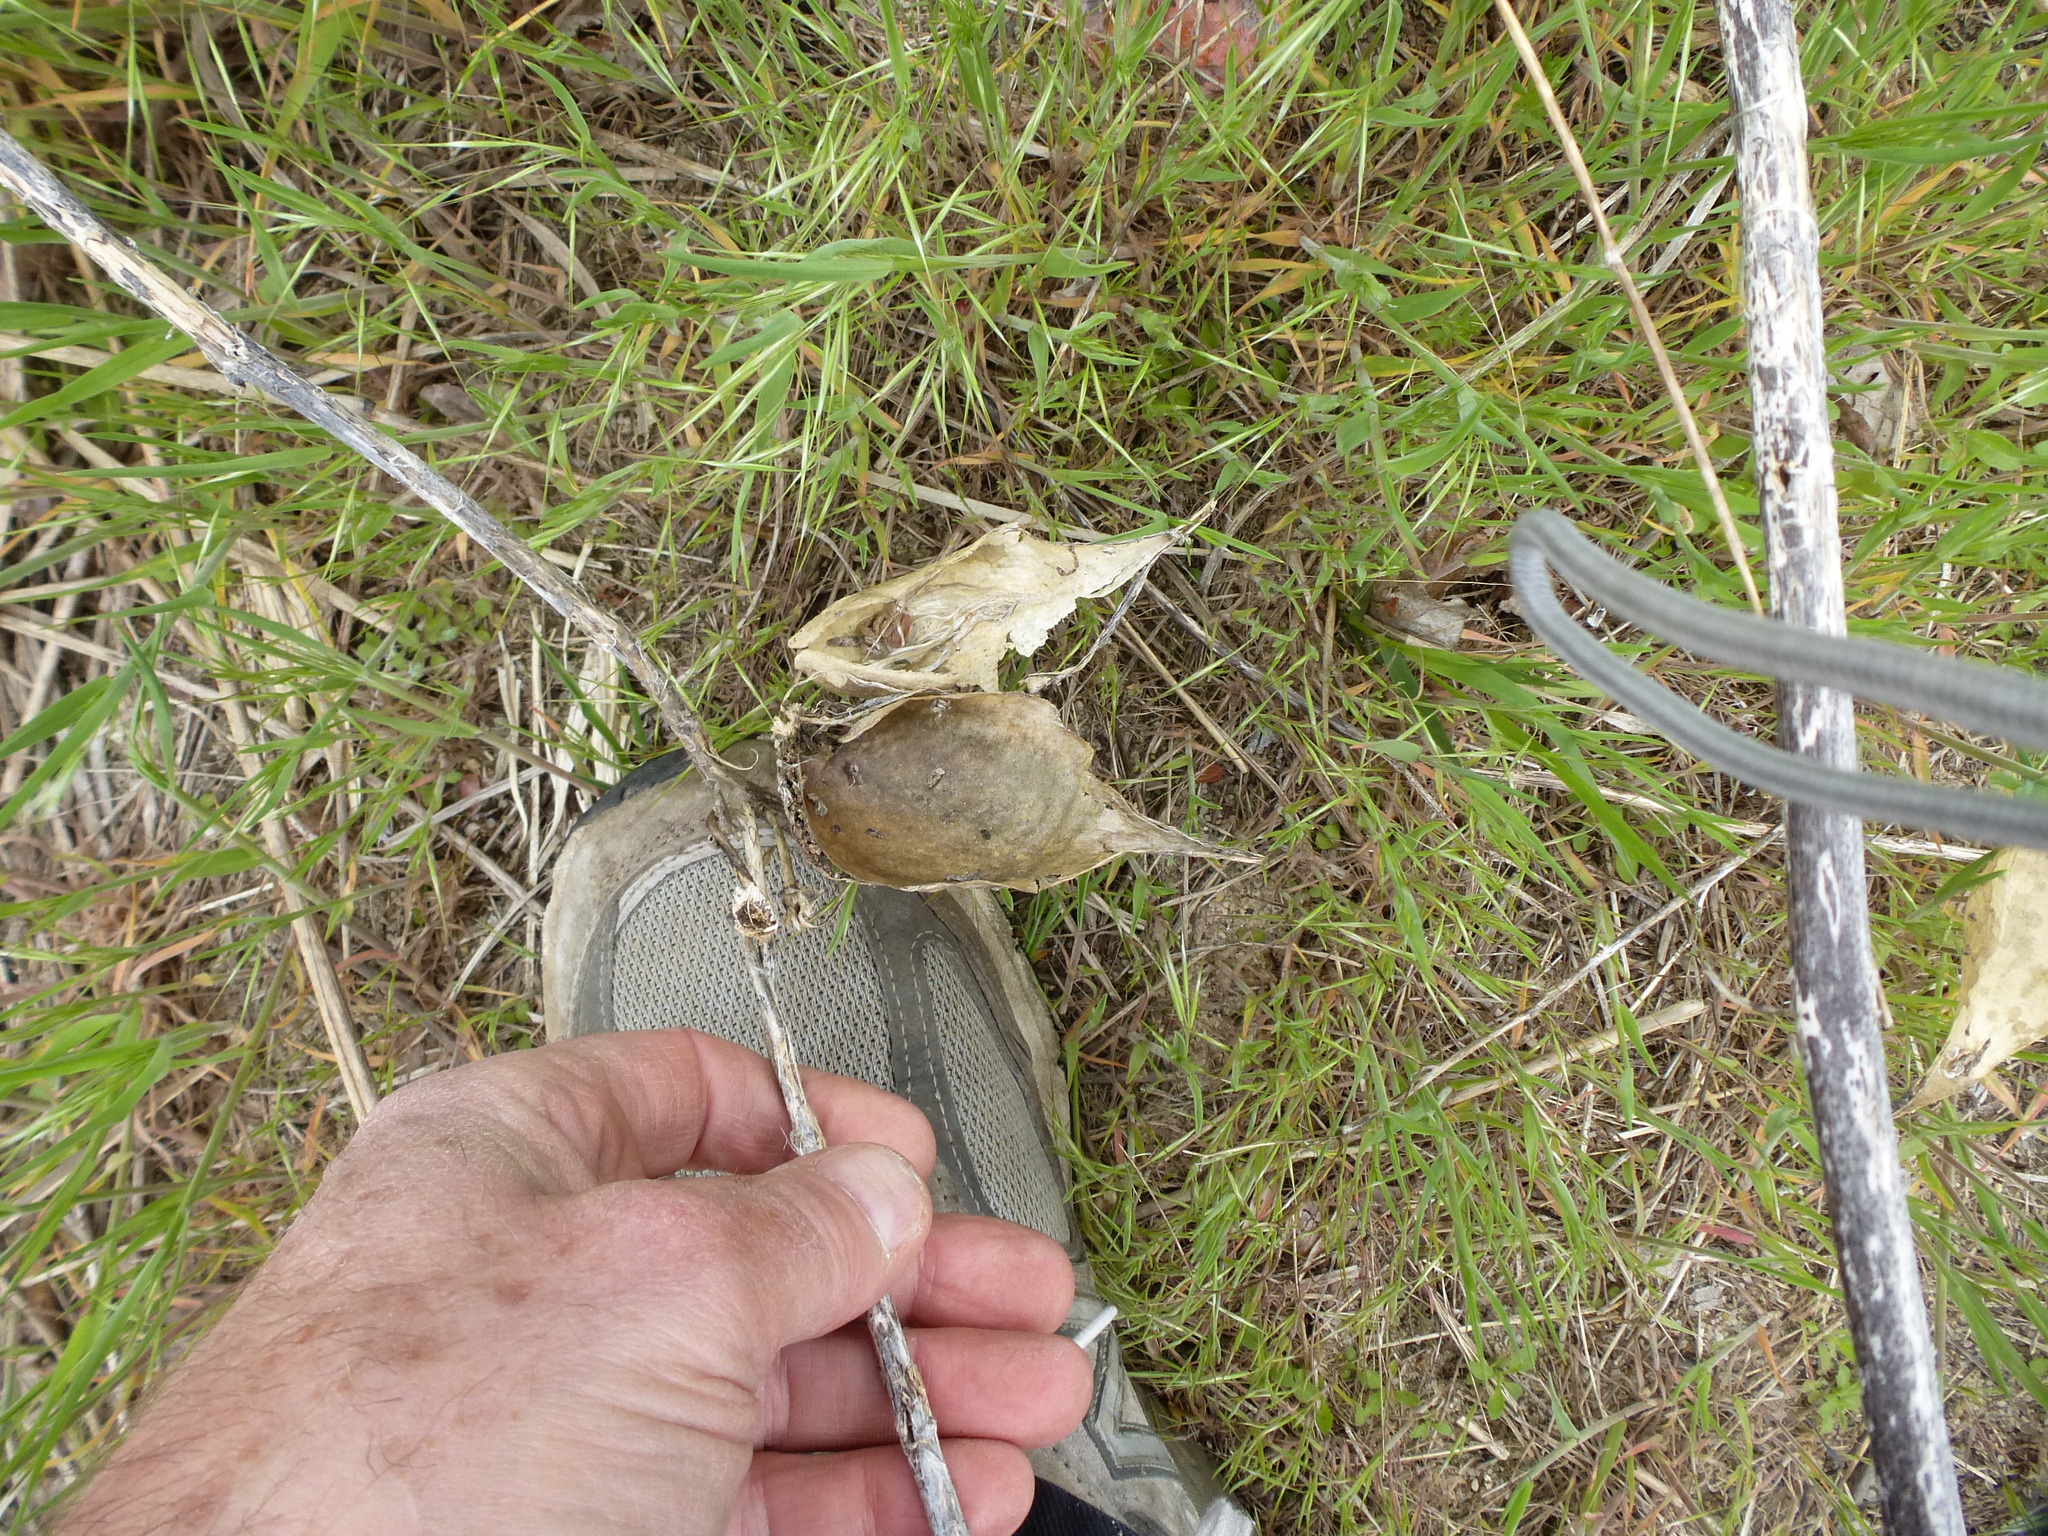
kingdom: Plantae
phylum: Tracheophyta
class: Magnoliopsida
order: Gentianales
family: Apocynaceae
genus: Asclepias
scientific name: Asclepias syriaca
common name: Common milkweed
